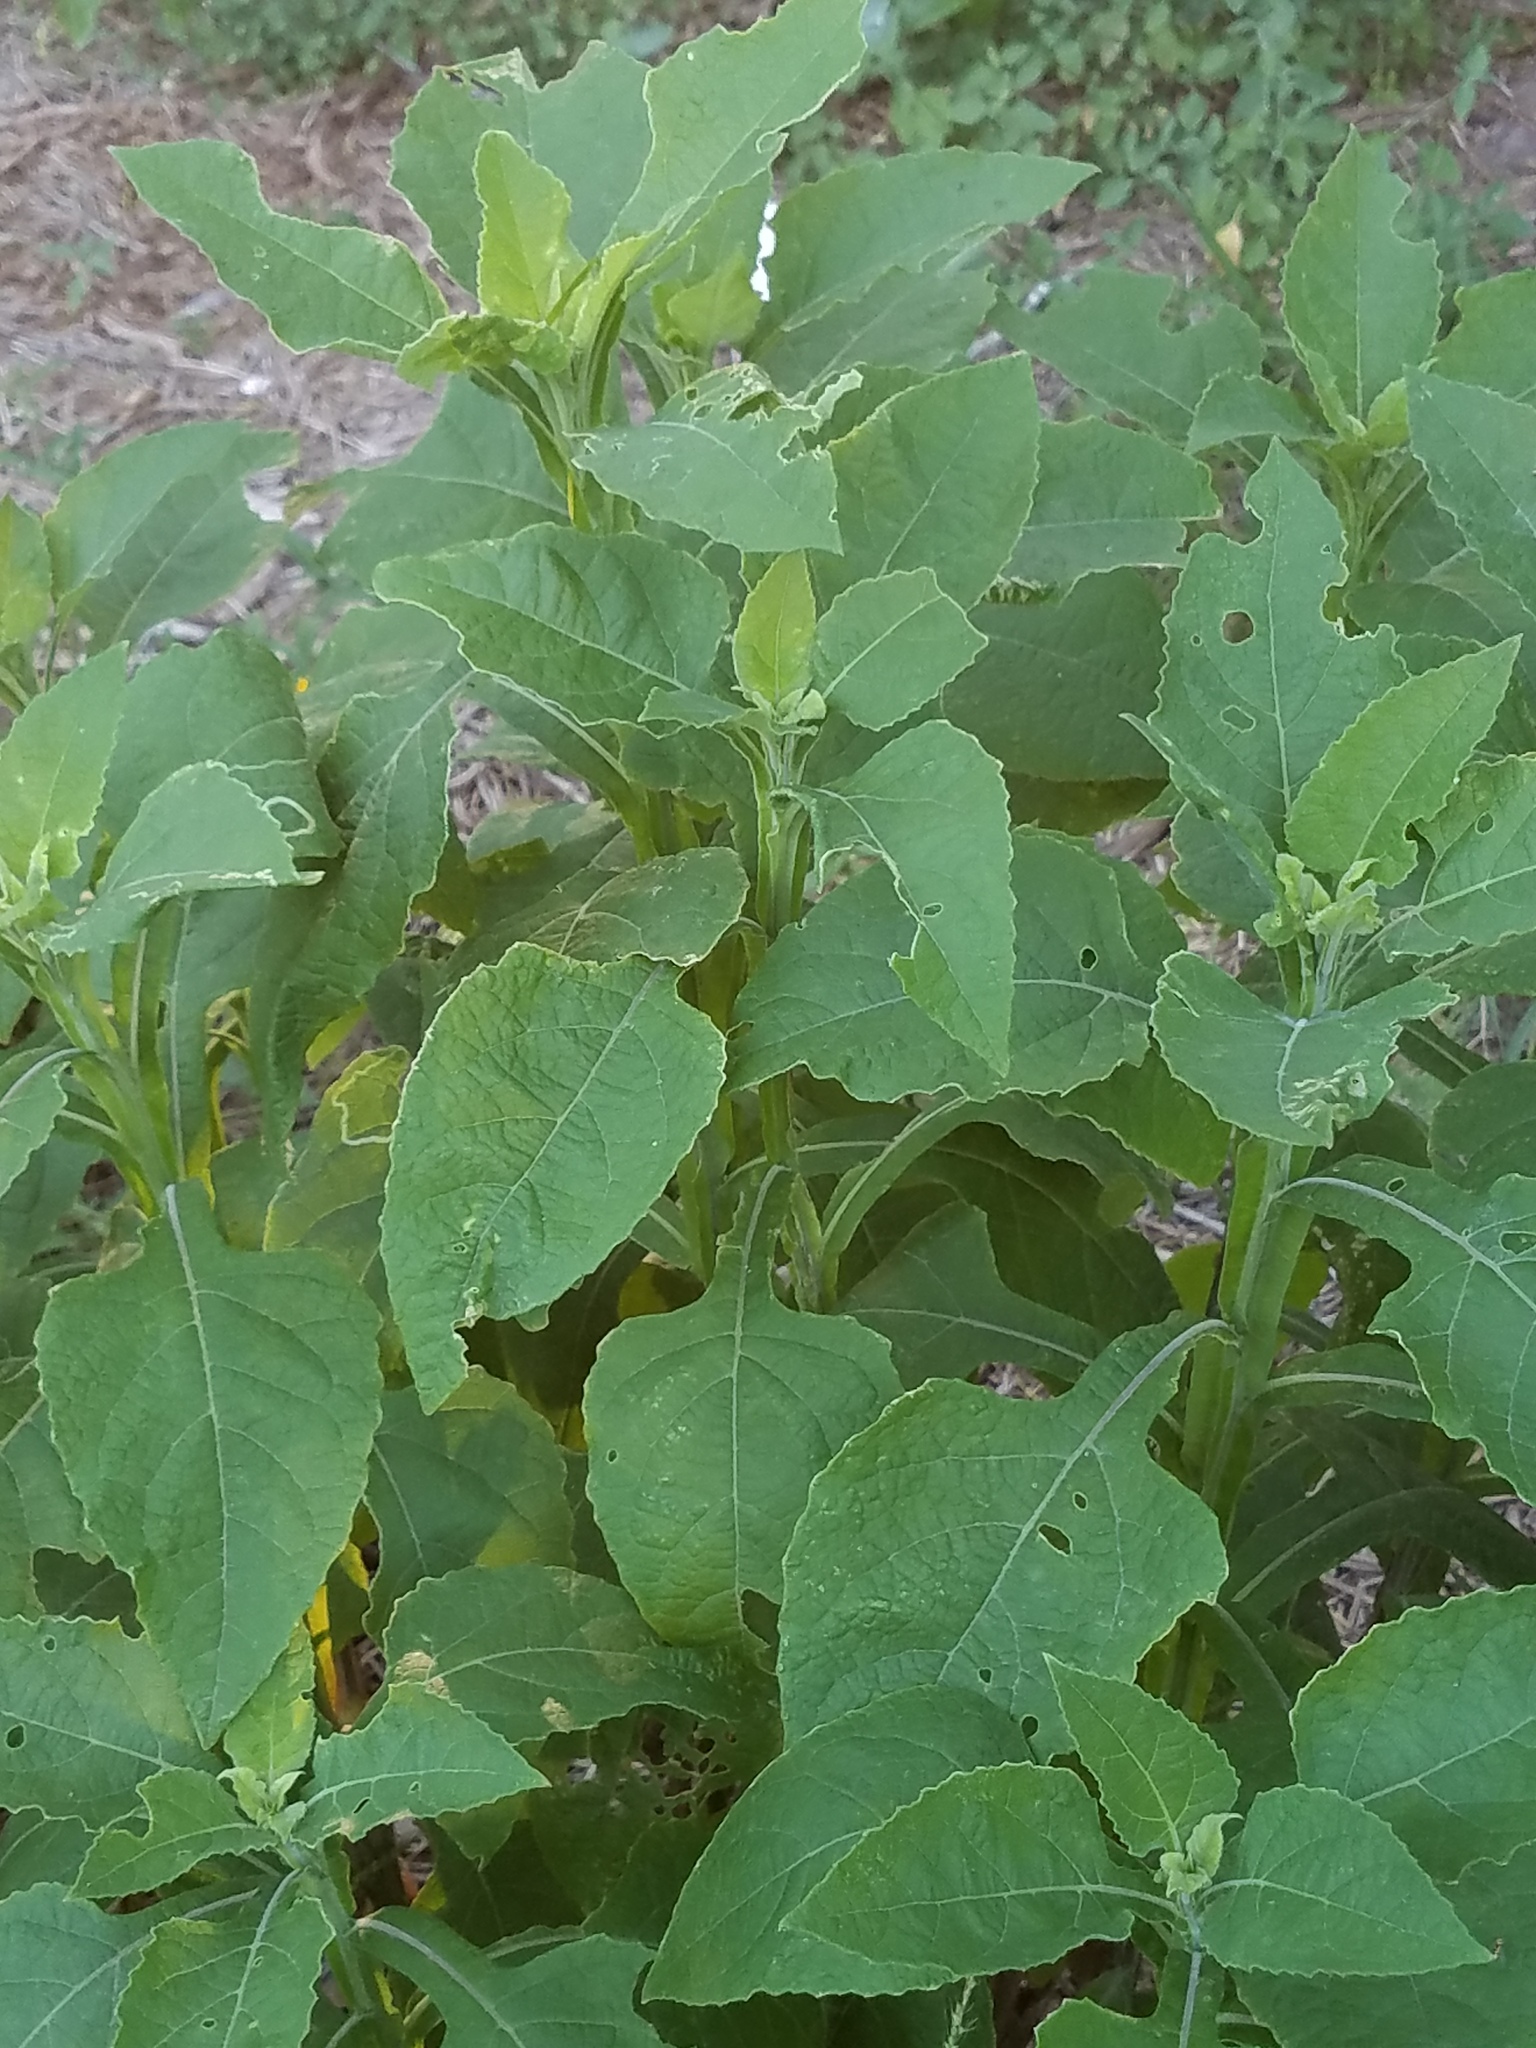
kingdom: Plantae
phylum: Tracheophyta
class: Magnoliopsida
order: Asterales
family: Asteraceae
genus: Verbesina
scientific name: Verbesina microptera
